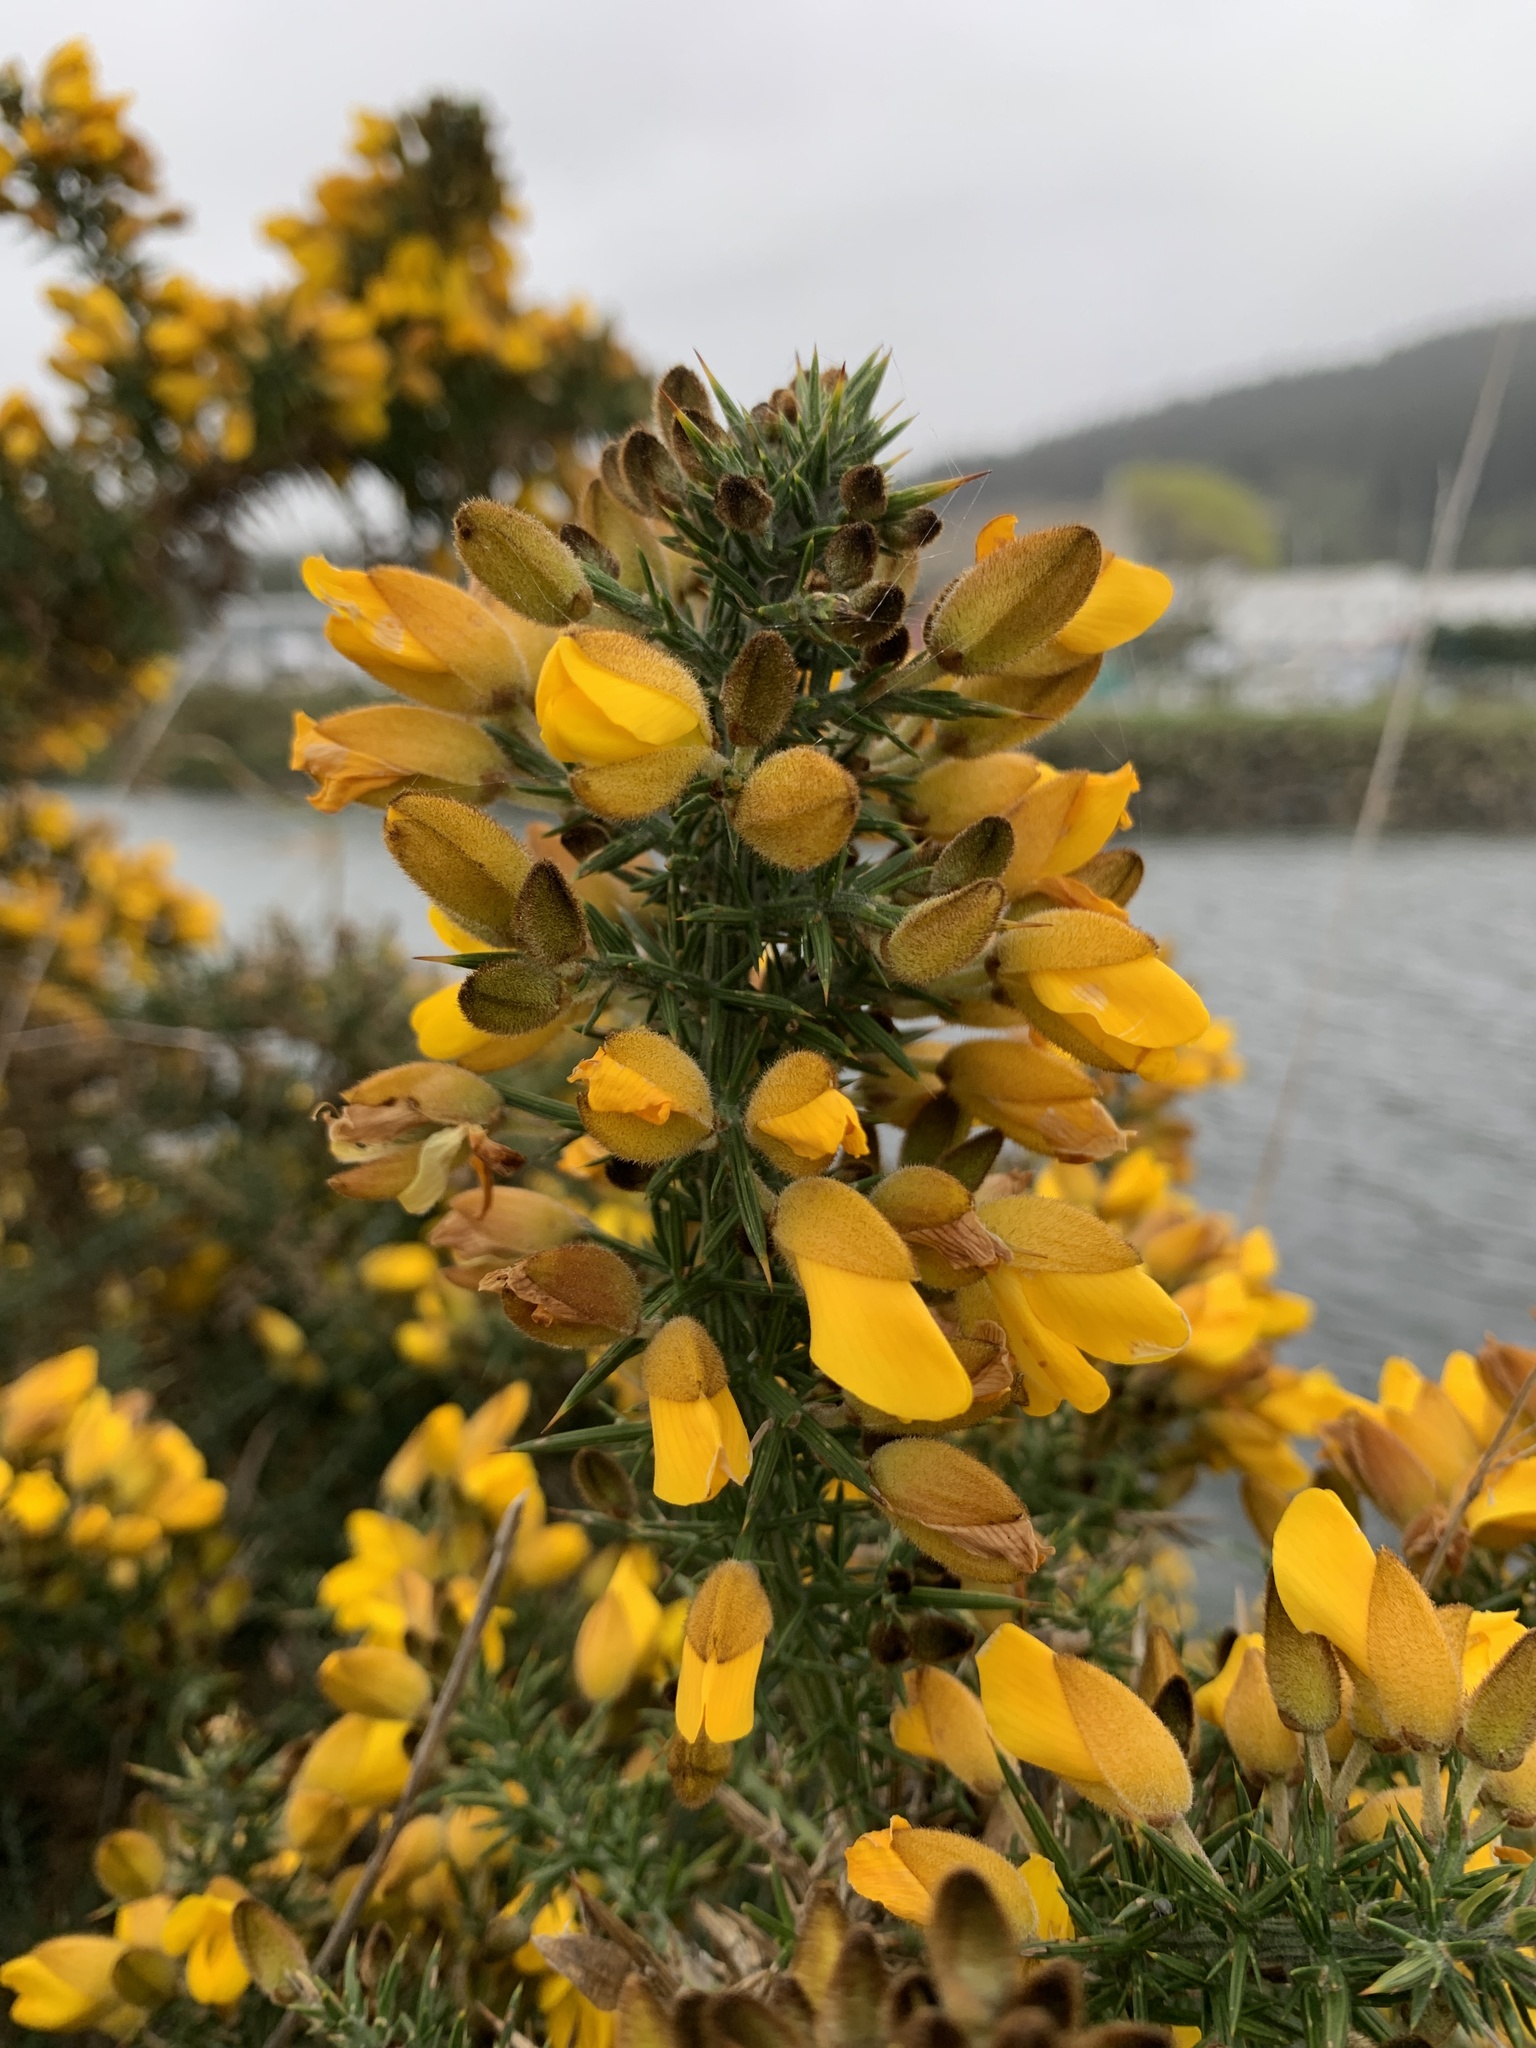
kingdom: Plantae
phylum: Tracheophyta
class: Magnoliopsida
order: Fabales
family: Fabaceae
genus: Ulex
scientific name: Ulex europaeus
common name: Common gorse
